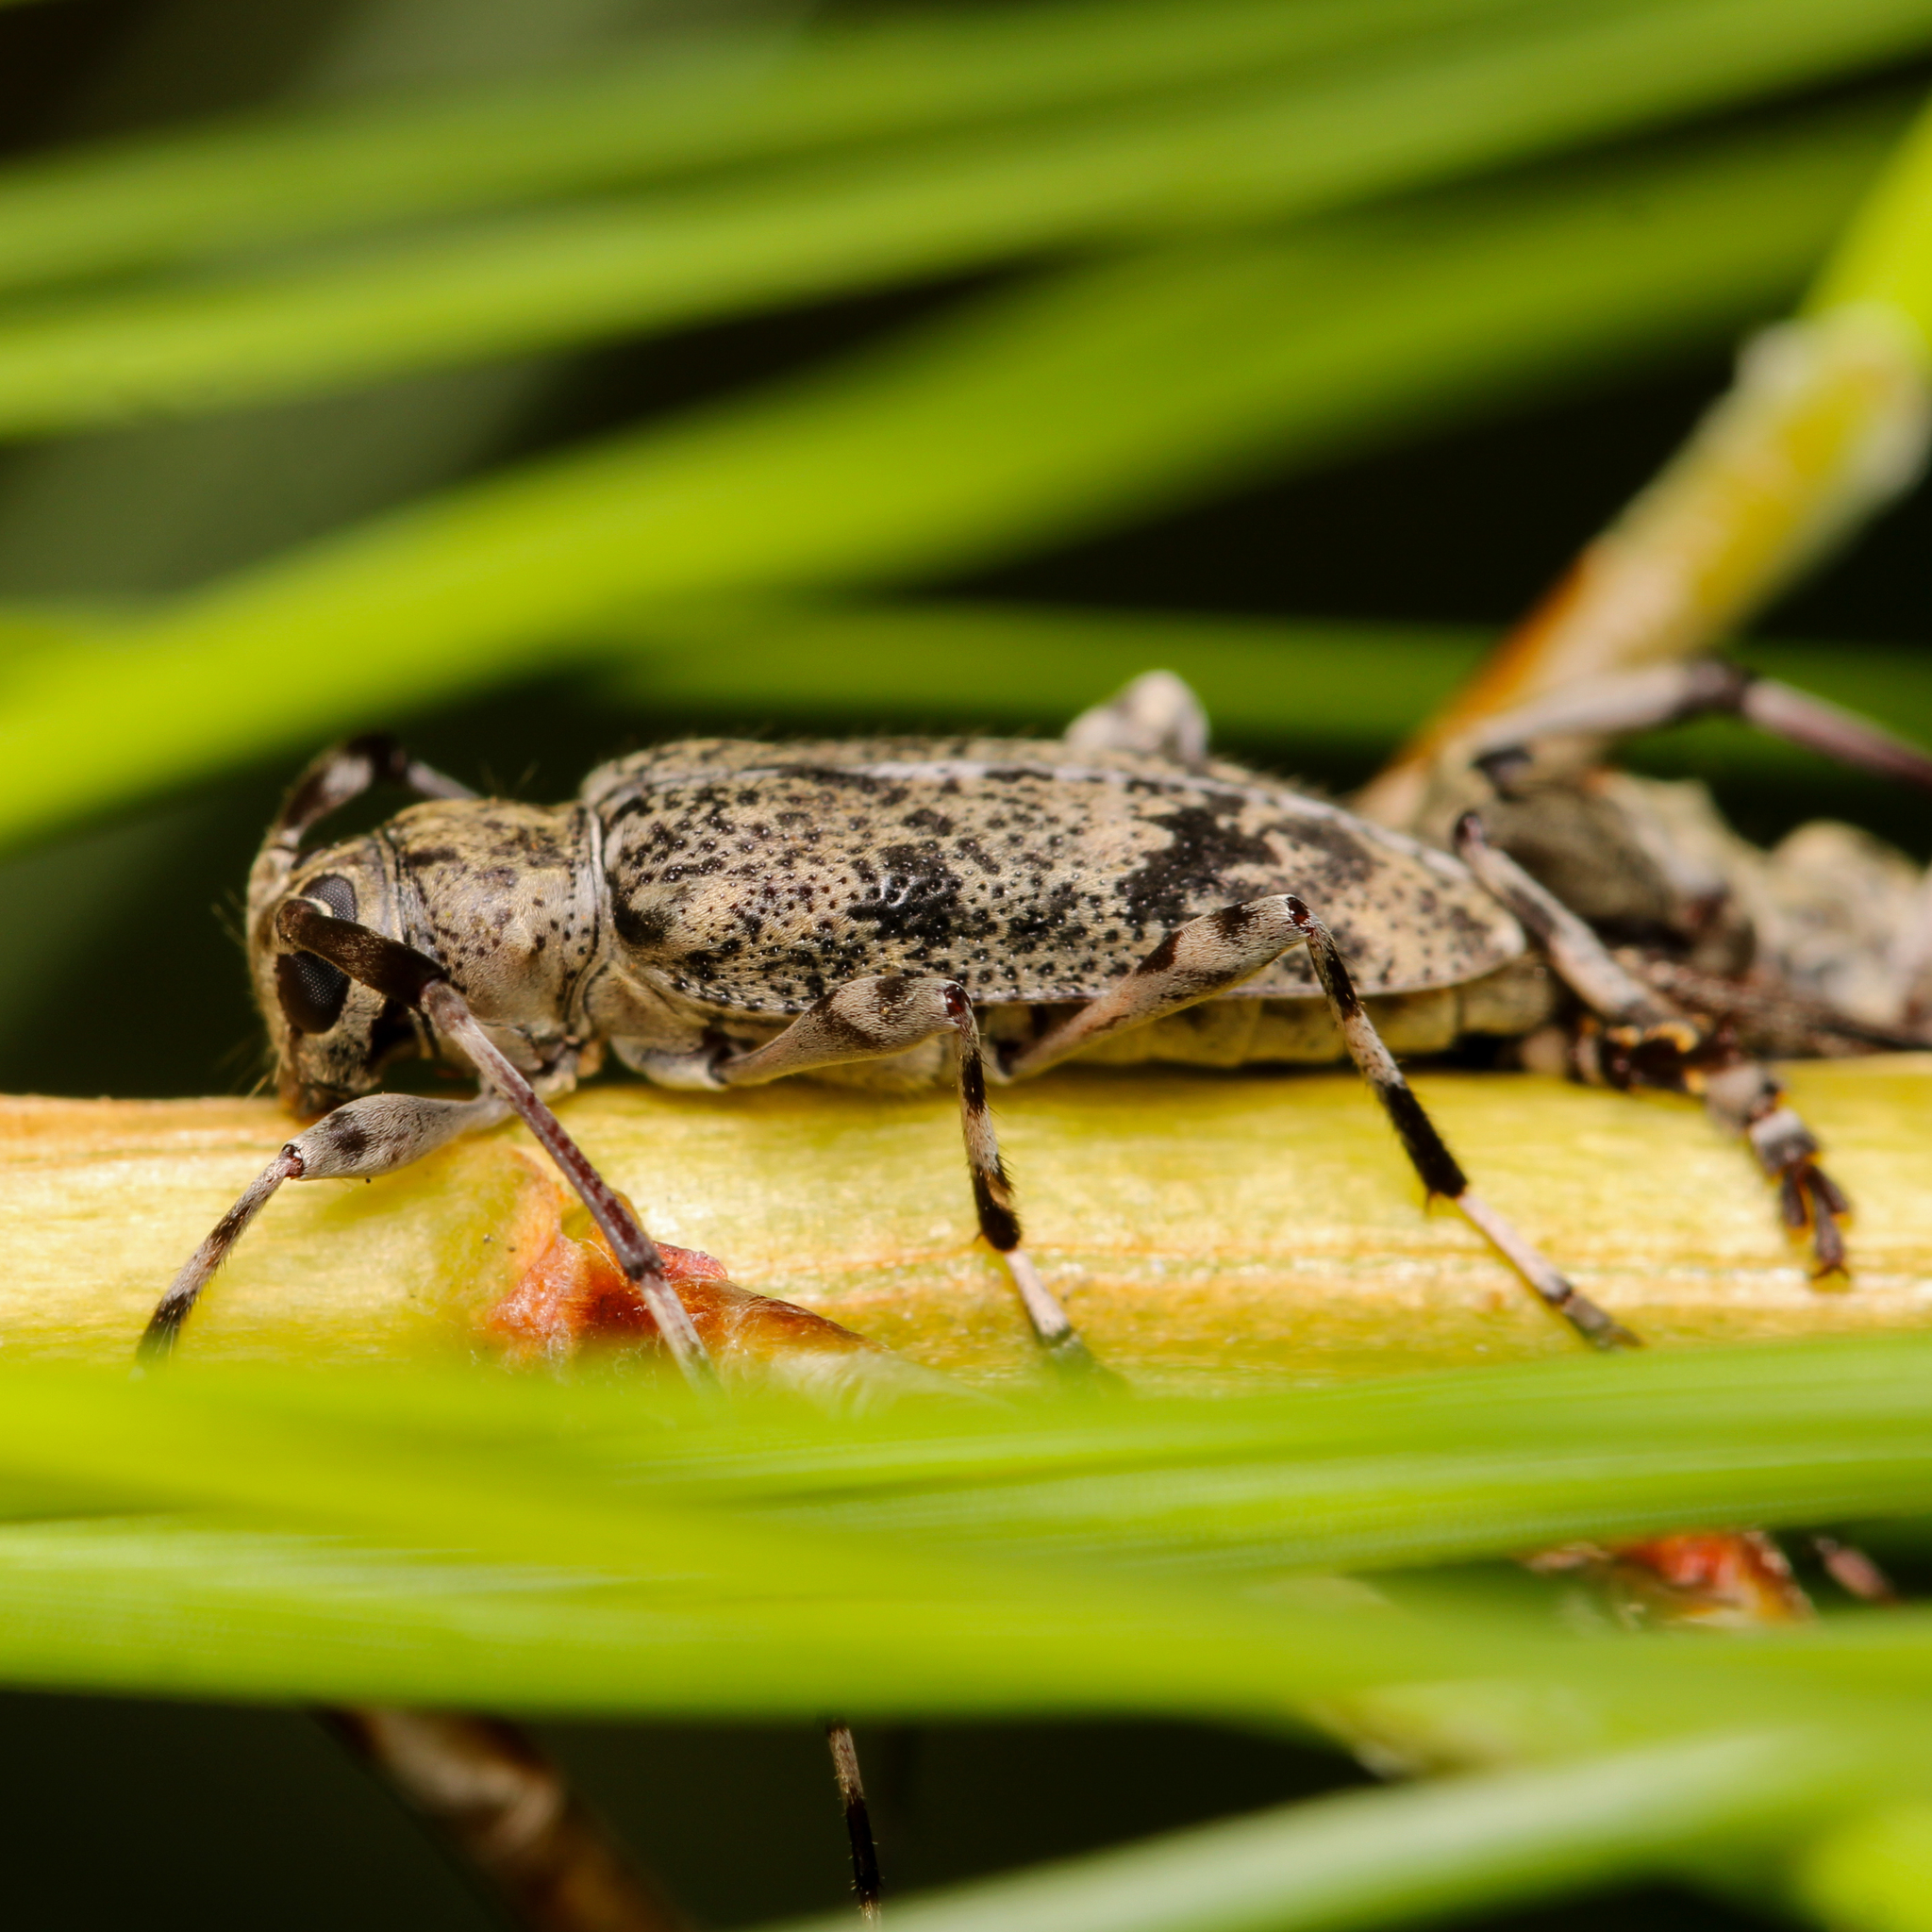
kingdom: Animalia
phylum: Arthropoda
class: Insecta
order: Coleoptera
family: Cerambycidae
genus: Graphisurus
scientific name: Graphisurus fasciatus
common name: Banded graphisurus
